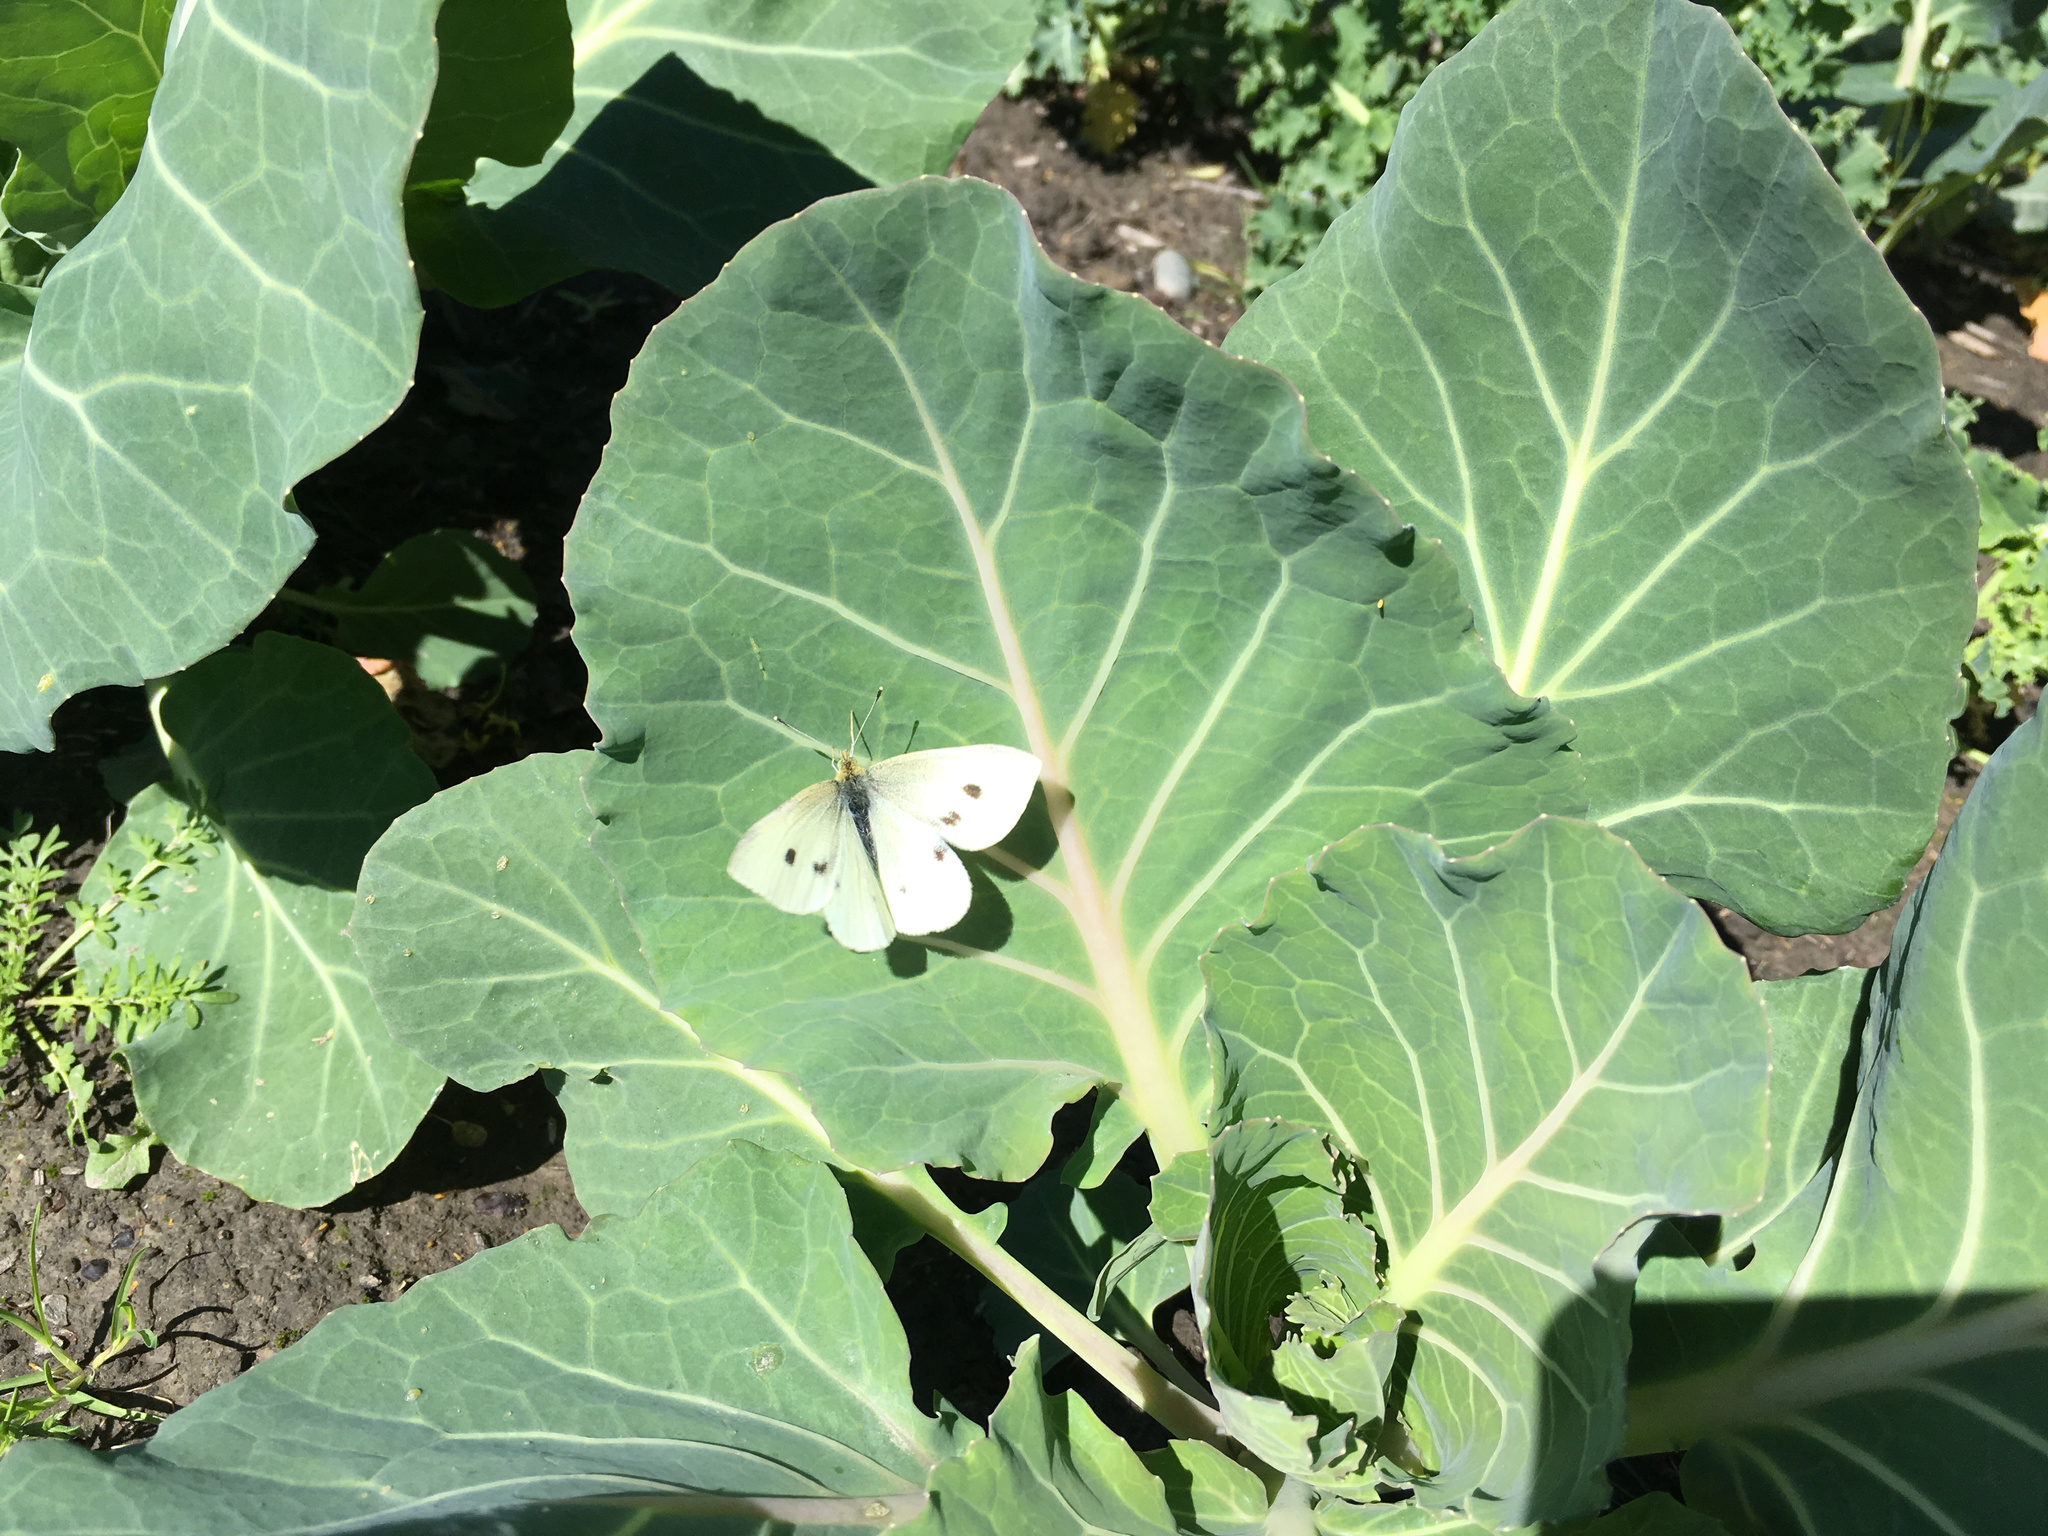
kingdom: Animalia
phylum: Arthropoda
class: Insecta
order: Lepidoptera
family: Pieridae
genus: Pieris
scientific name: Pieris rapae
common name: Small white
